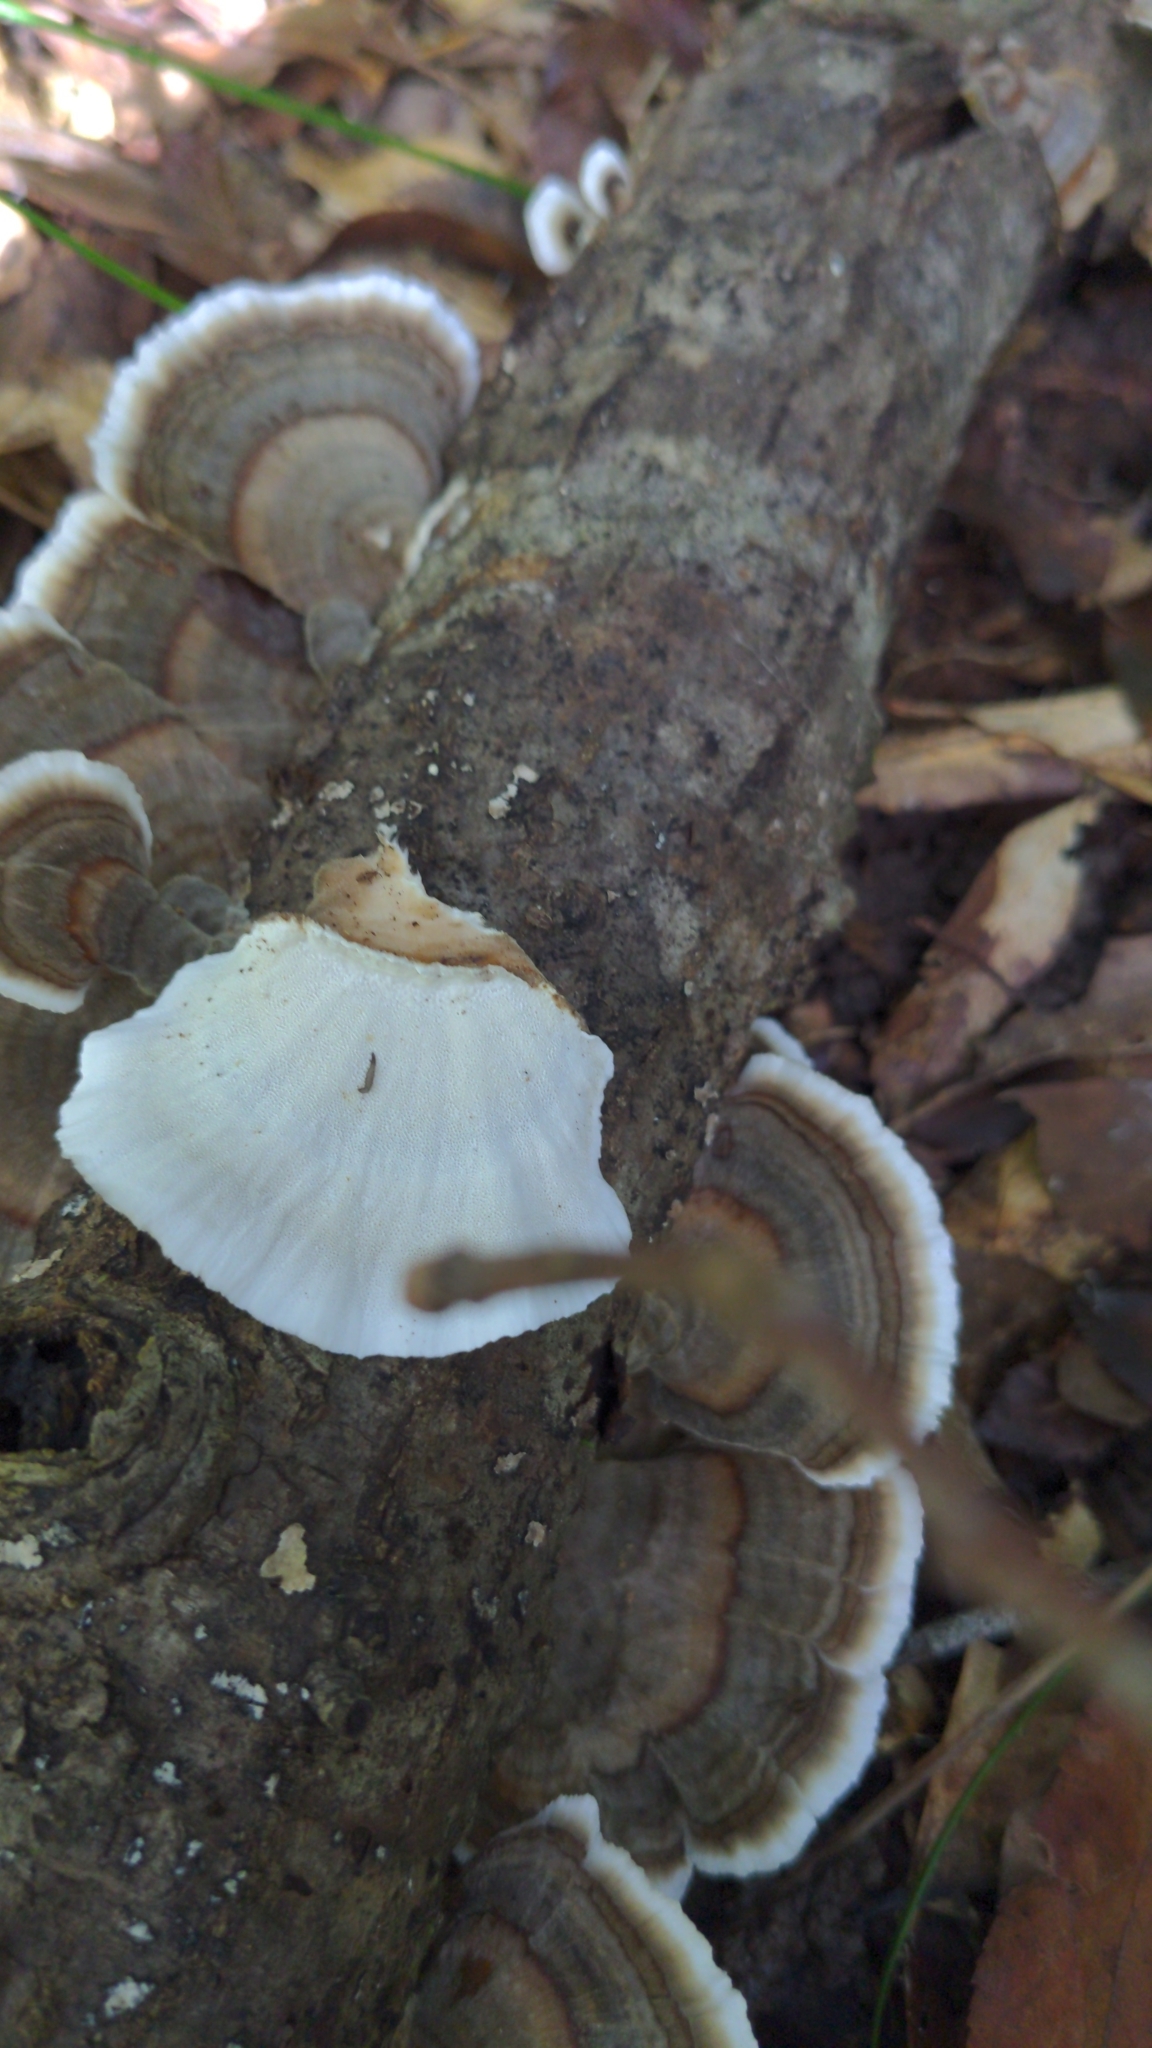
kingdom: Fungi
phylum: Basidiomycota
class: Agaricomycetes
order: Polyporales
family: Polyporaceae
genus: Trametes
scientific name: Trametes versicolor
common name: Turkeytail
